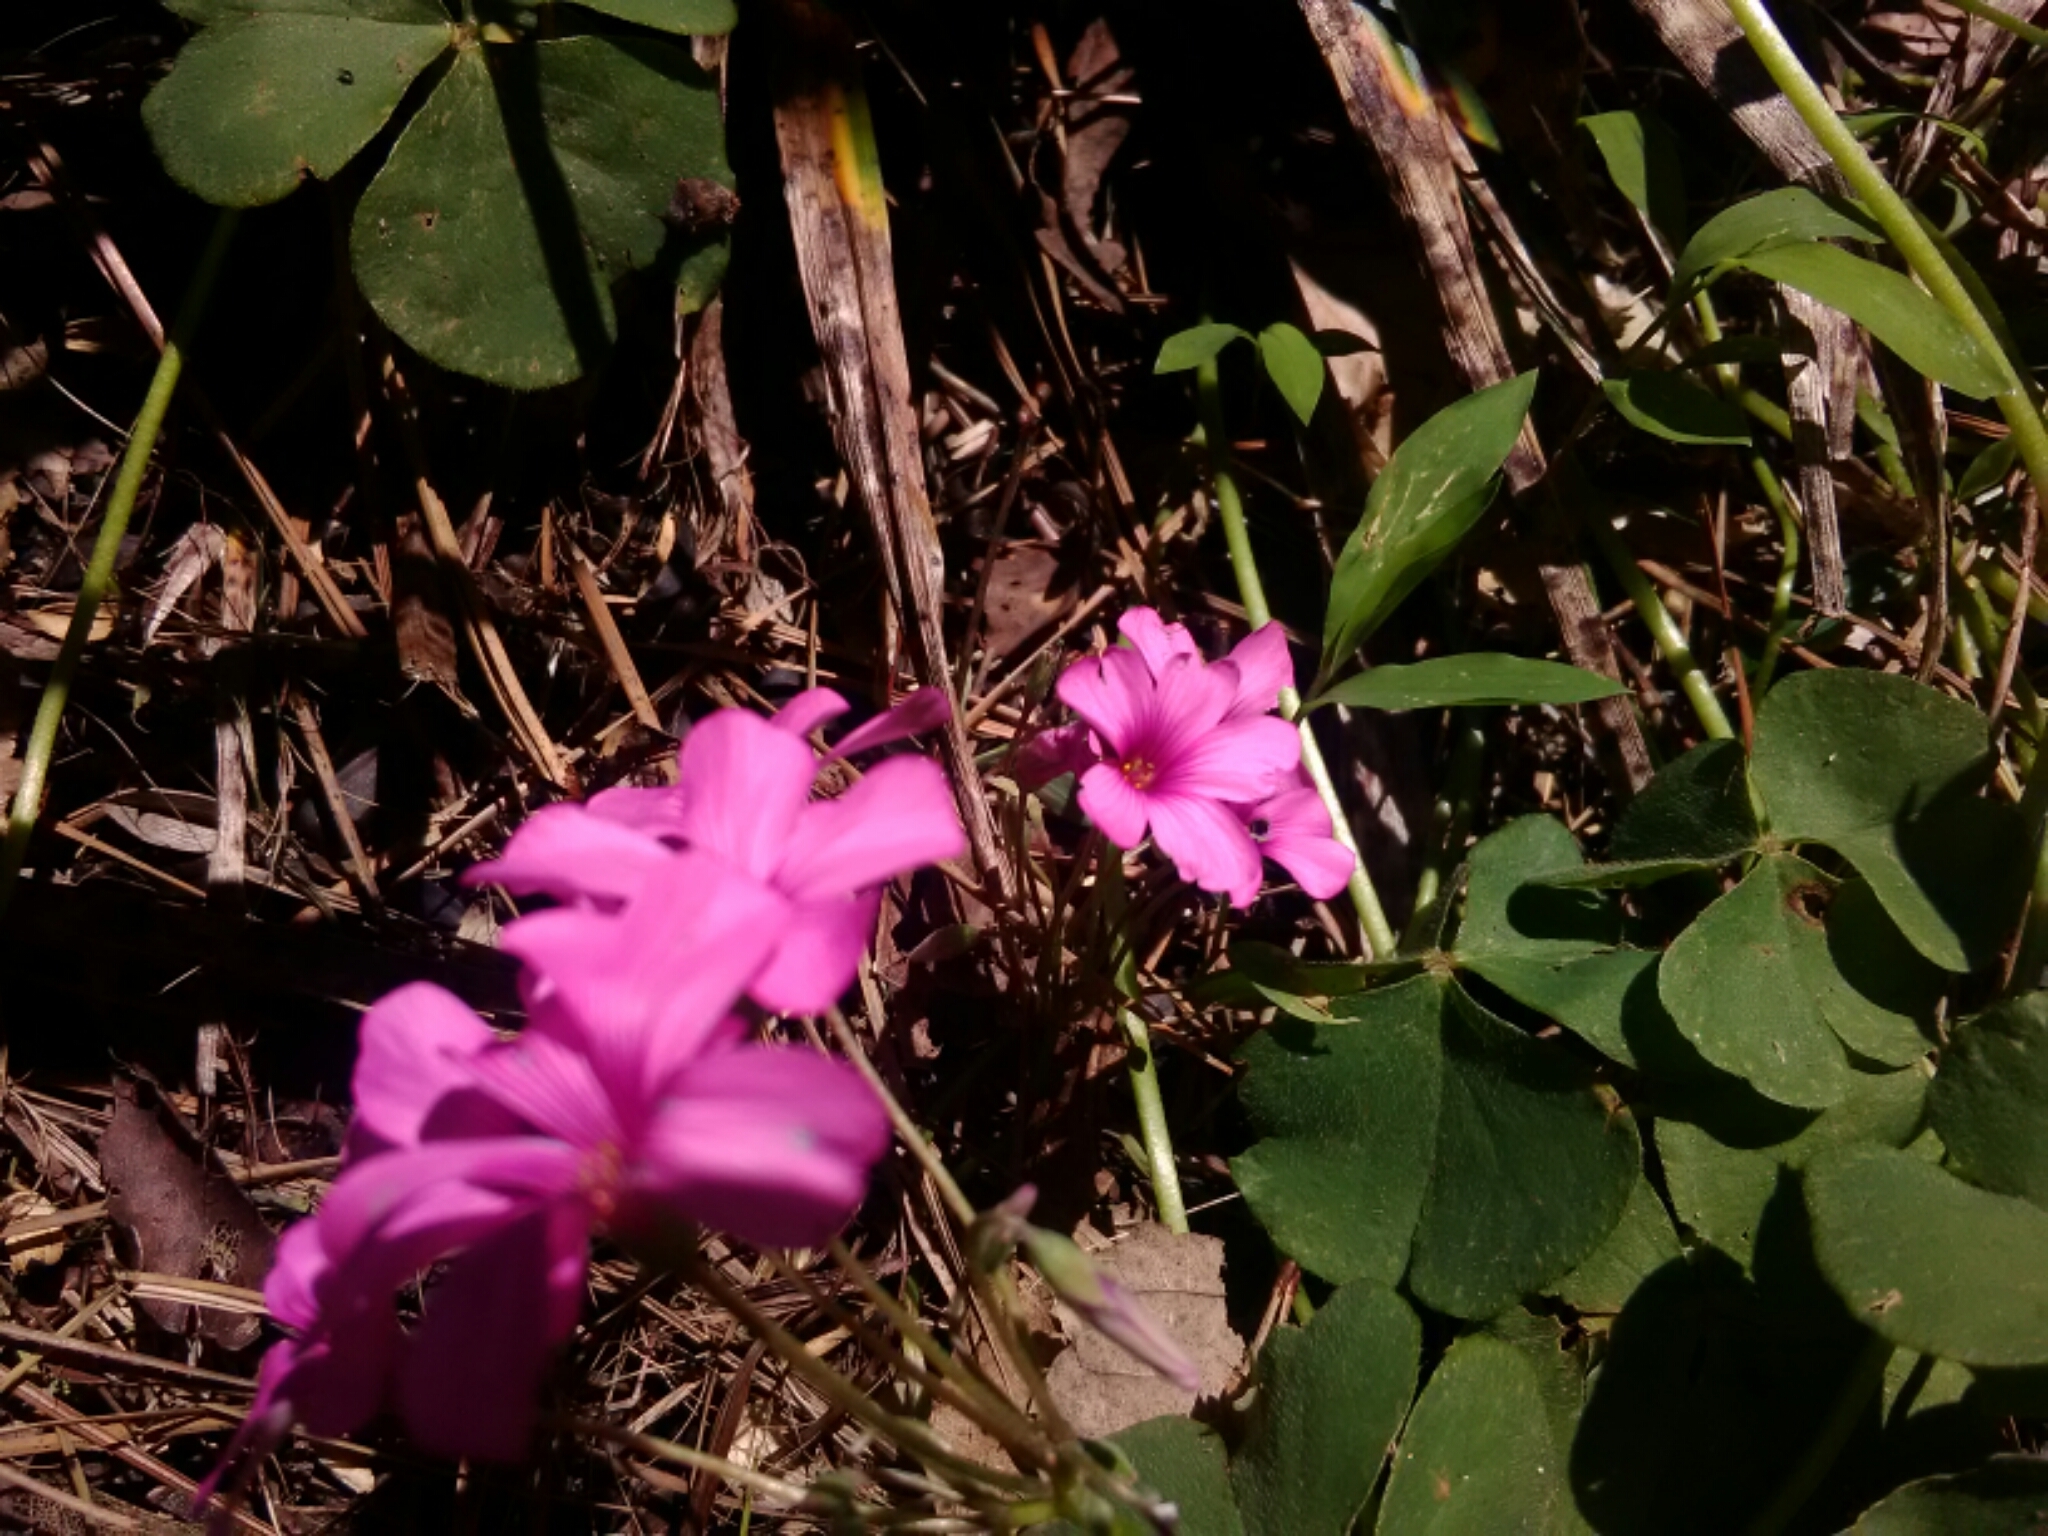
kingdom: Plantae
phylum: Tracheophyta
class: Magnoliopsida
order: Oxalidales
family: Oxalidaceae
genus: Oxalis
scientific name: Oxalis articulata
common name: Pink-sorrel
